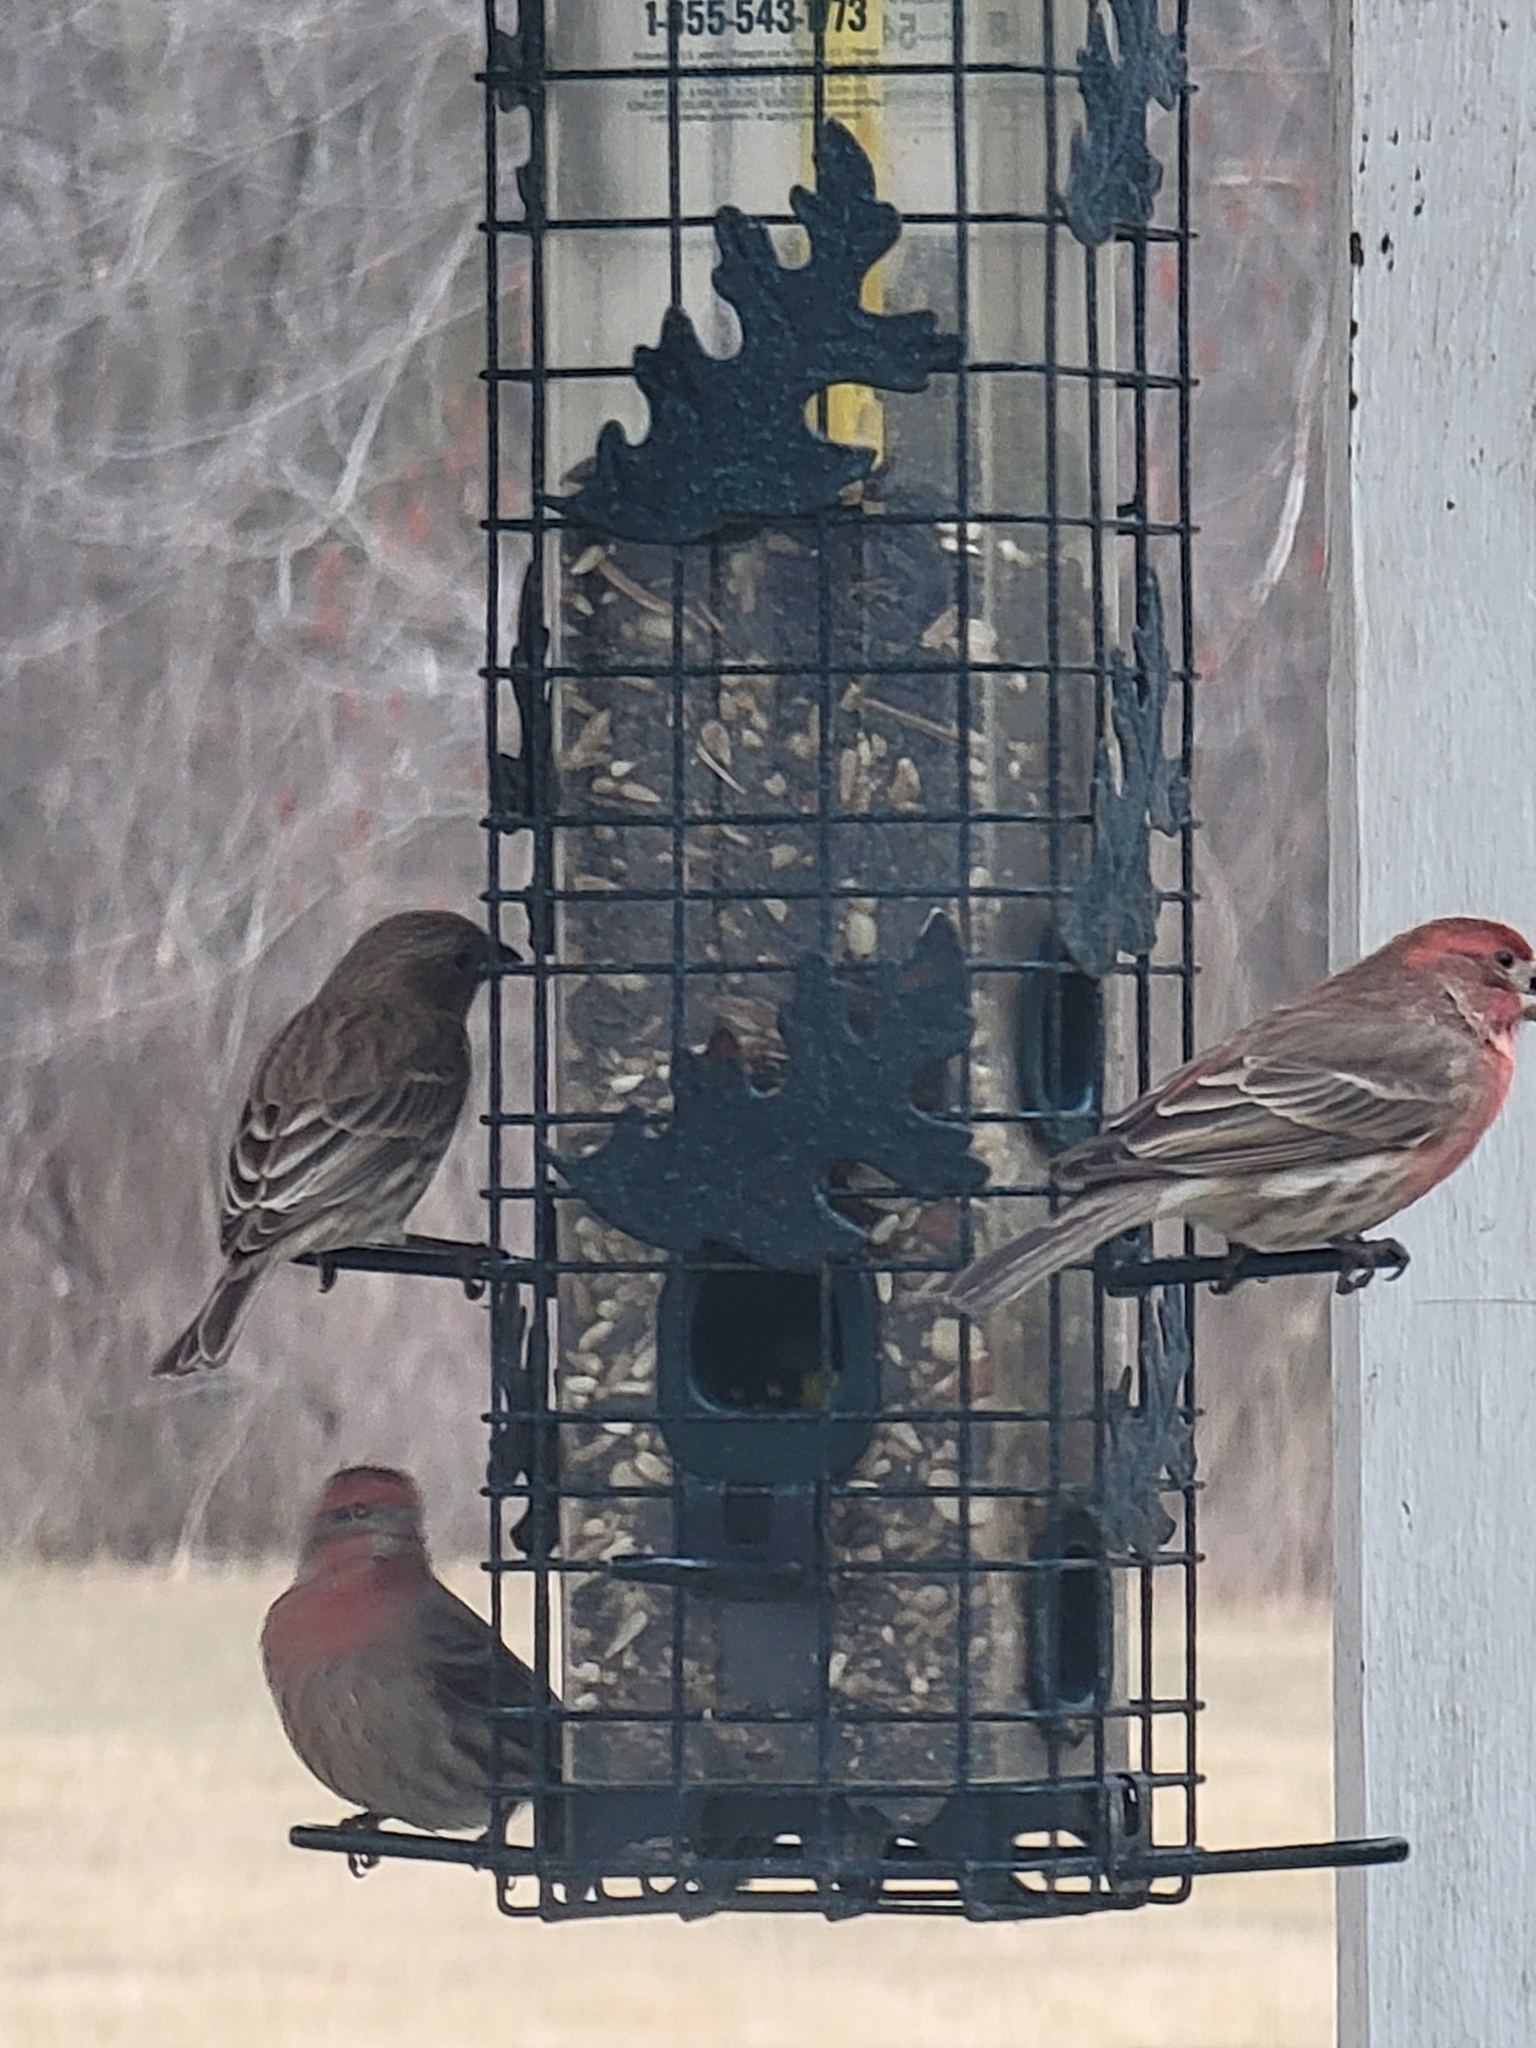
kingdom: Animalia
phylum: Chordata
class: Aves
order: Passeriformes
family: Fringillidae
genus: Haemorhous
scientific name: Haemorhous mexicanus
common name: House finch
